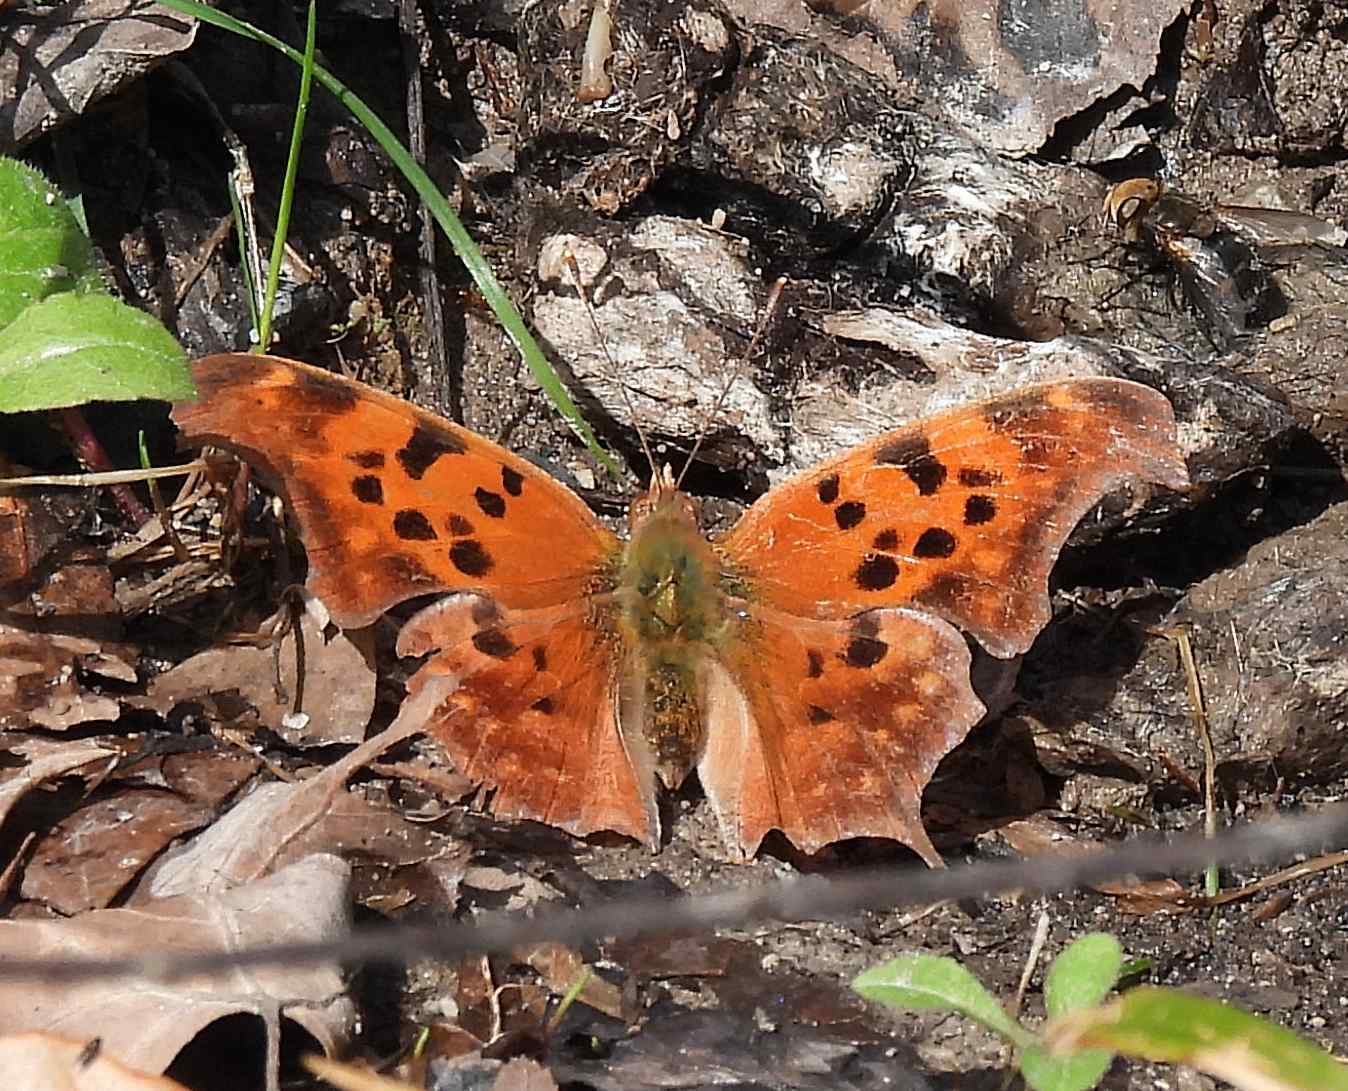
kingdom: Animalia
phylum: Arthropoda
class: Insecta
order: Lepidoptera
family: Nymphalidae
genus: Polygonia
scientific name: Polygonia interrogationis
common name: Question mark
